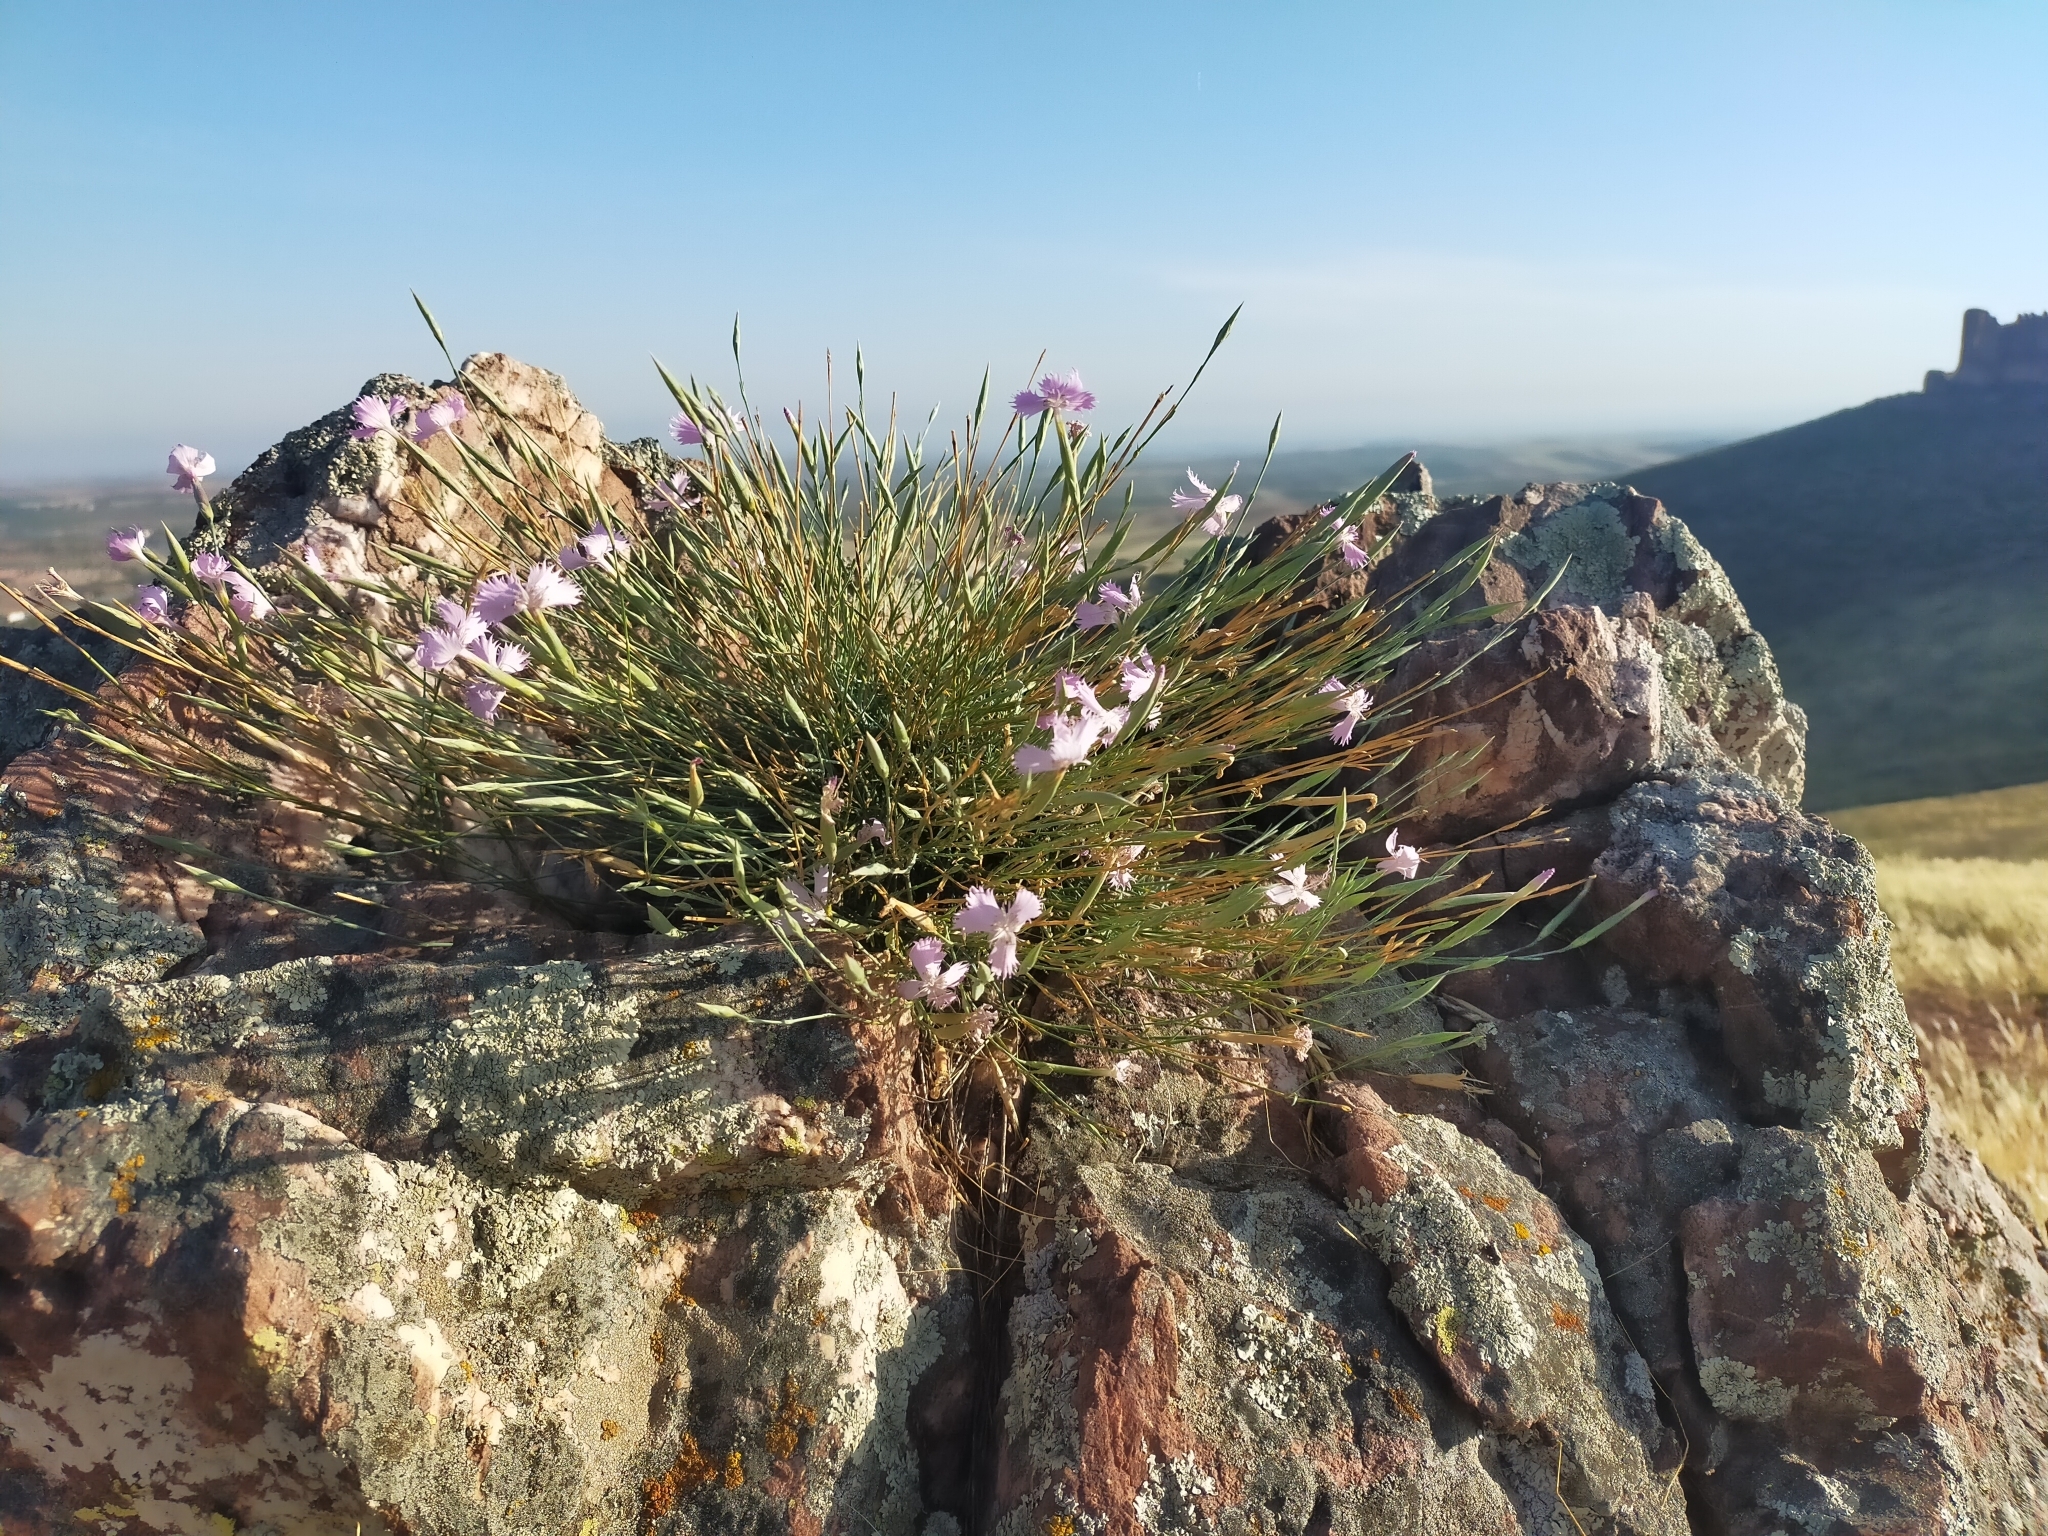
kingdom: Plantae
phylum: Tracheophyta
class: Magnoliopsida
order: Caryophyllales
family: Caryophyllaceae
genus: Dianthus
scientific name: Dianthus lusitanus
